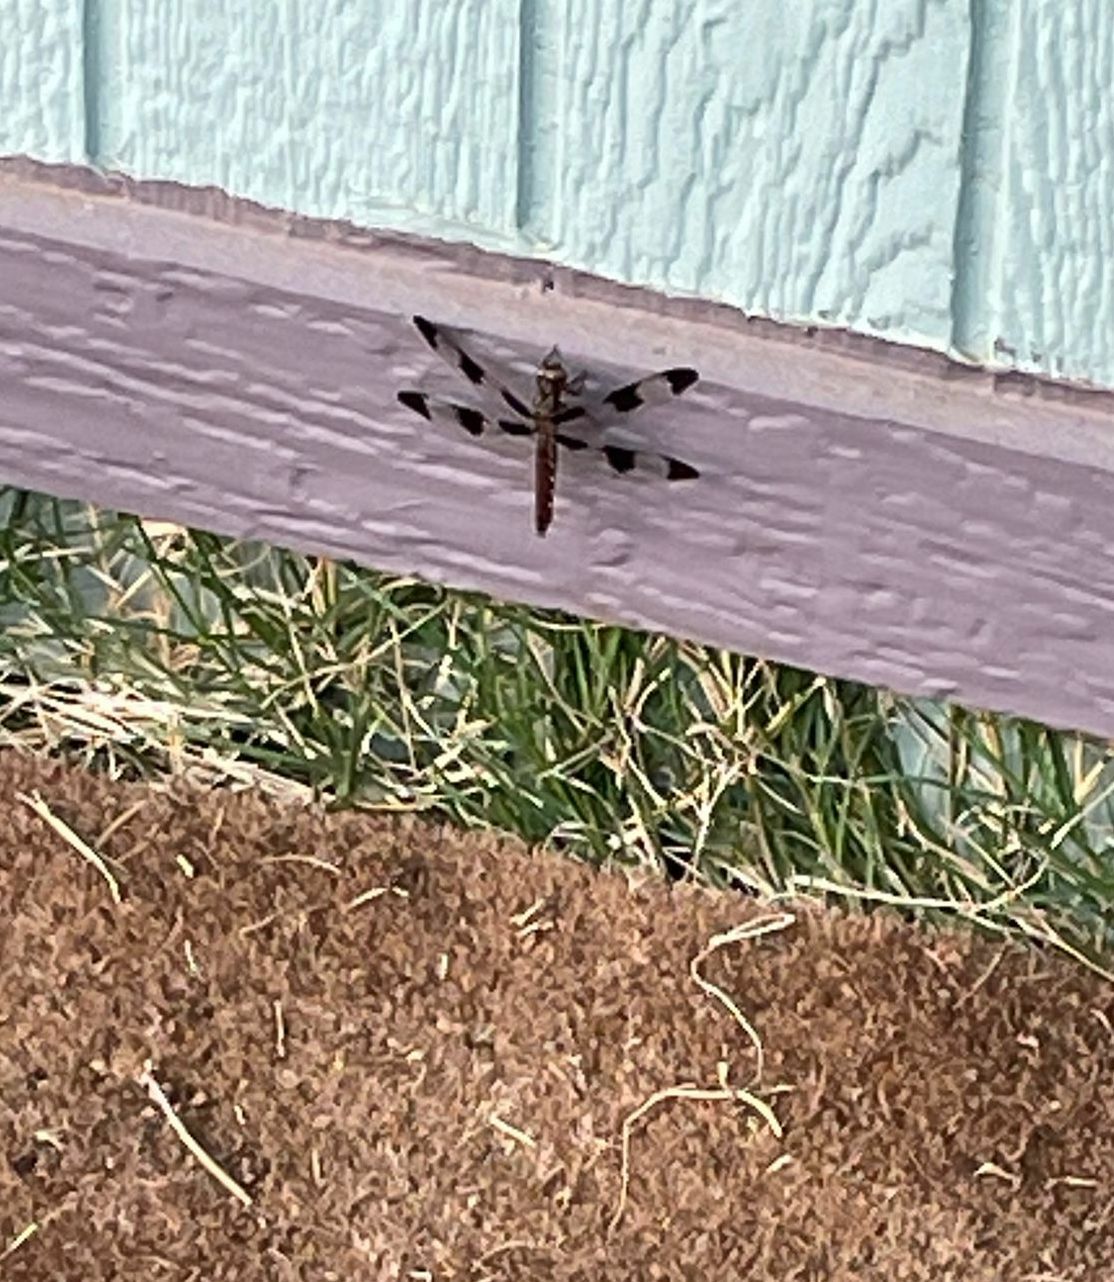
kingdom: Animalia
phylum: Arthropoda
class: Insecta
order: Odonata
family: Libellulidae
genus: Plathemis
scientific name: Plathemis lydia
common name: Common whitetail
